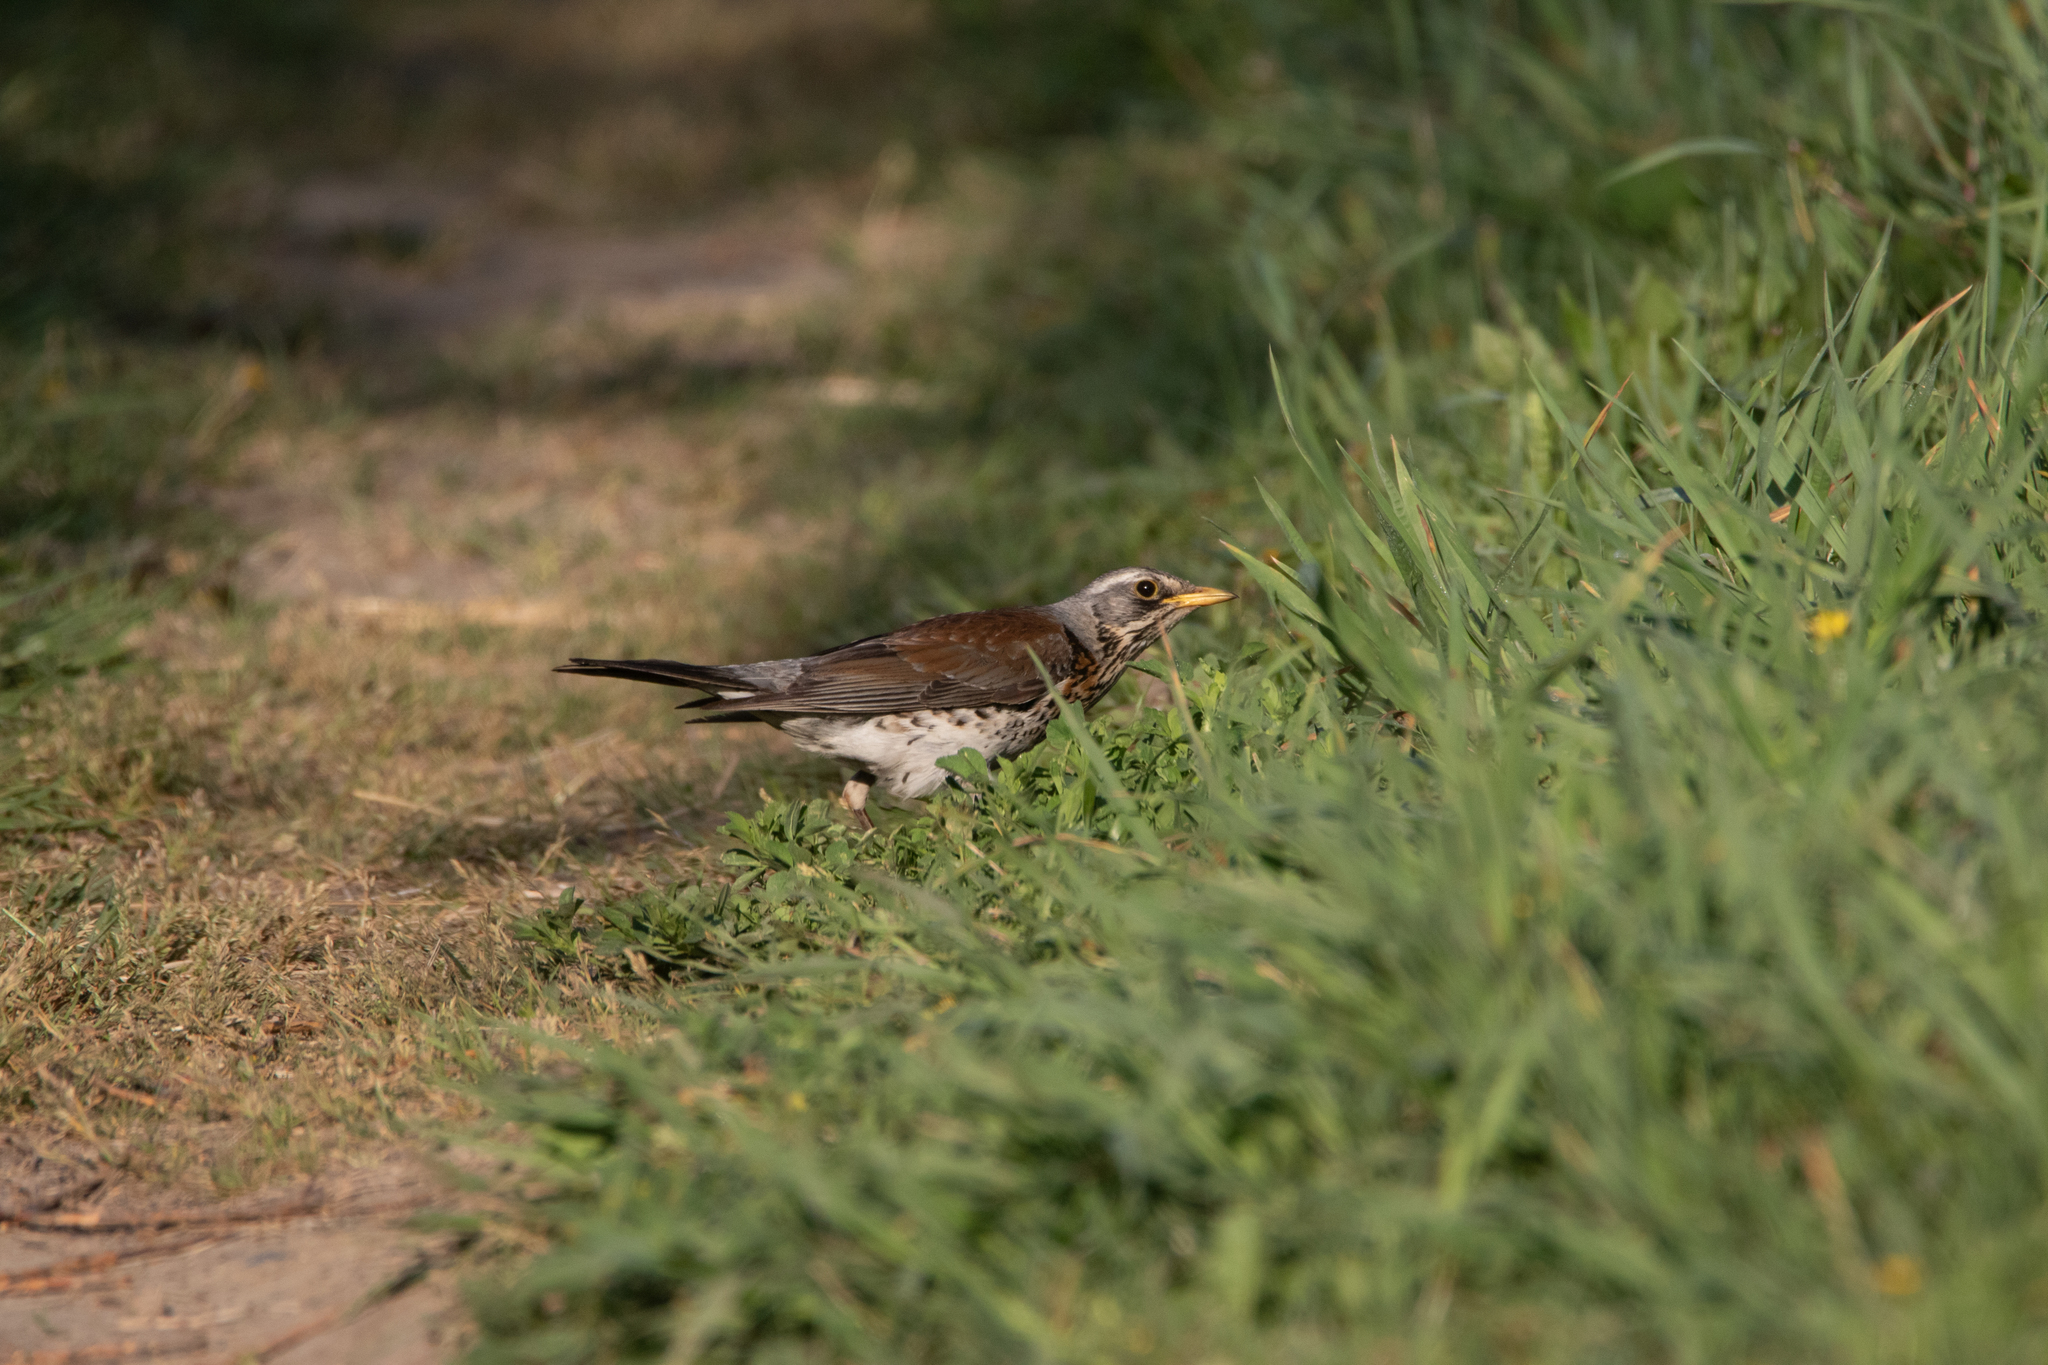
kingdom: Animalia
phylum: Chordata
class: Aves
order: Passeriformes
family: Turdidae
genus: Turdus
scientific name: Turdus pilaris
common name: Fieldfare
